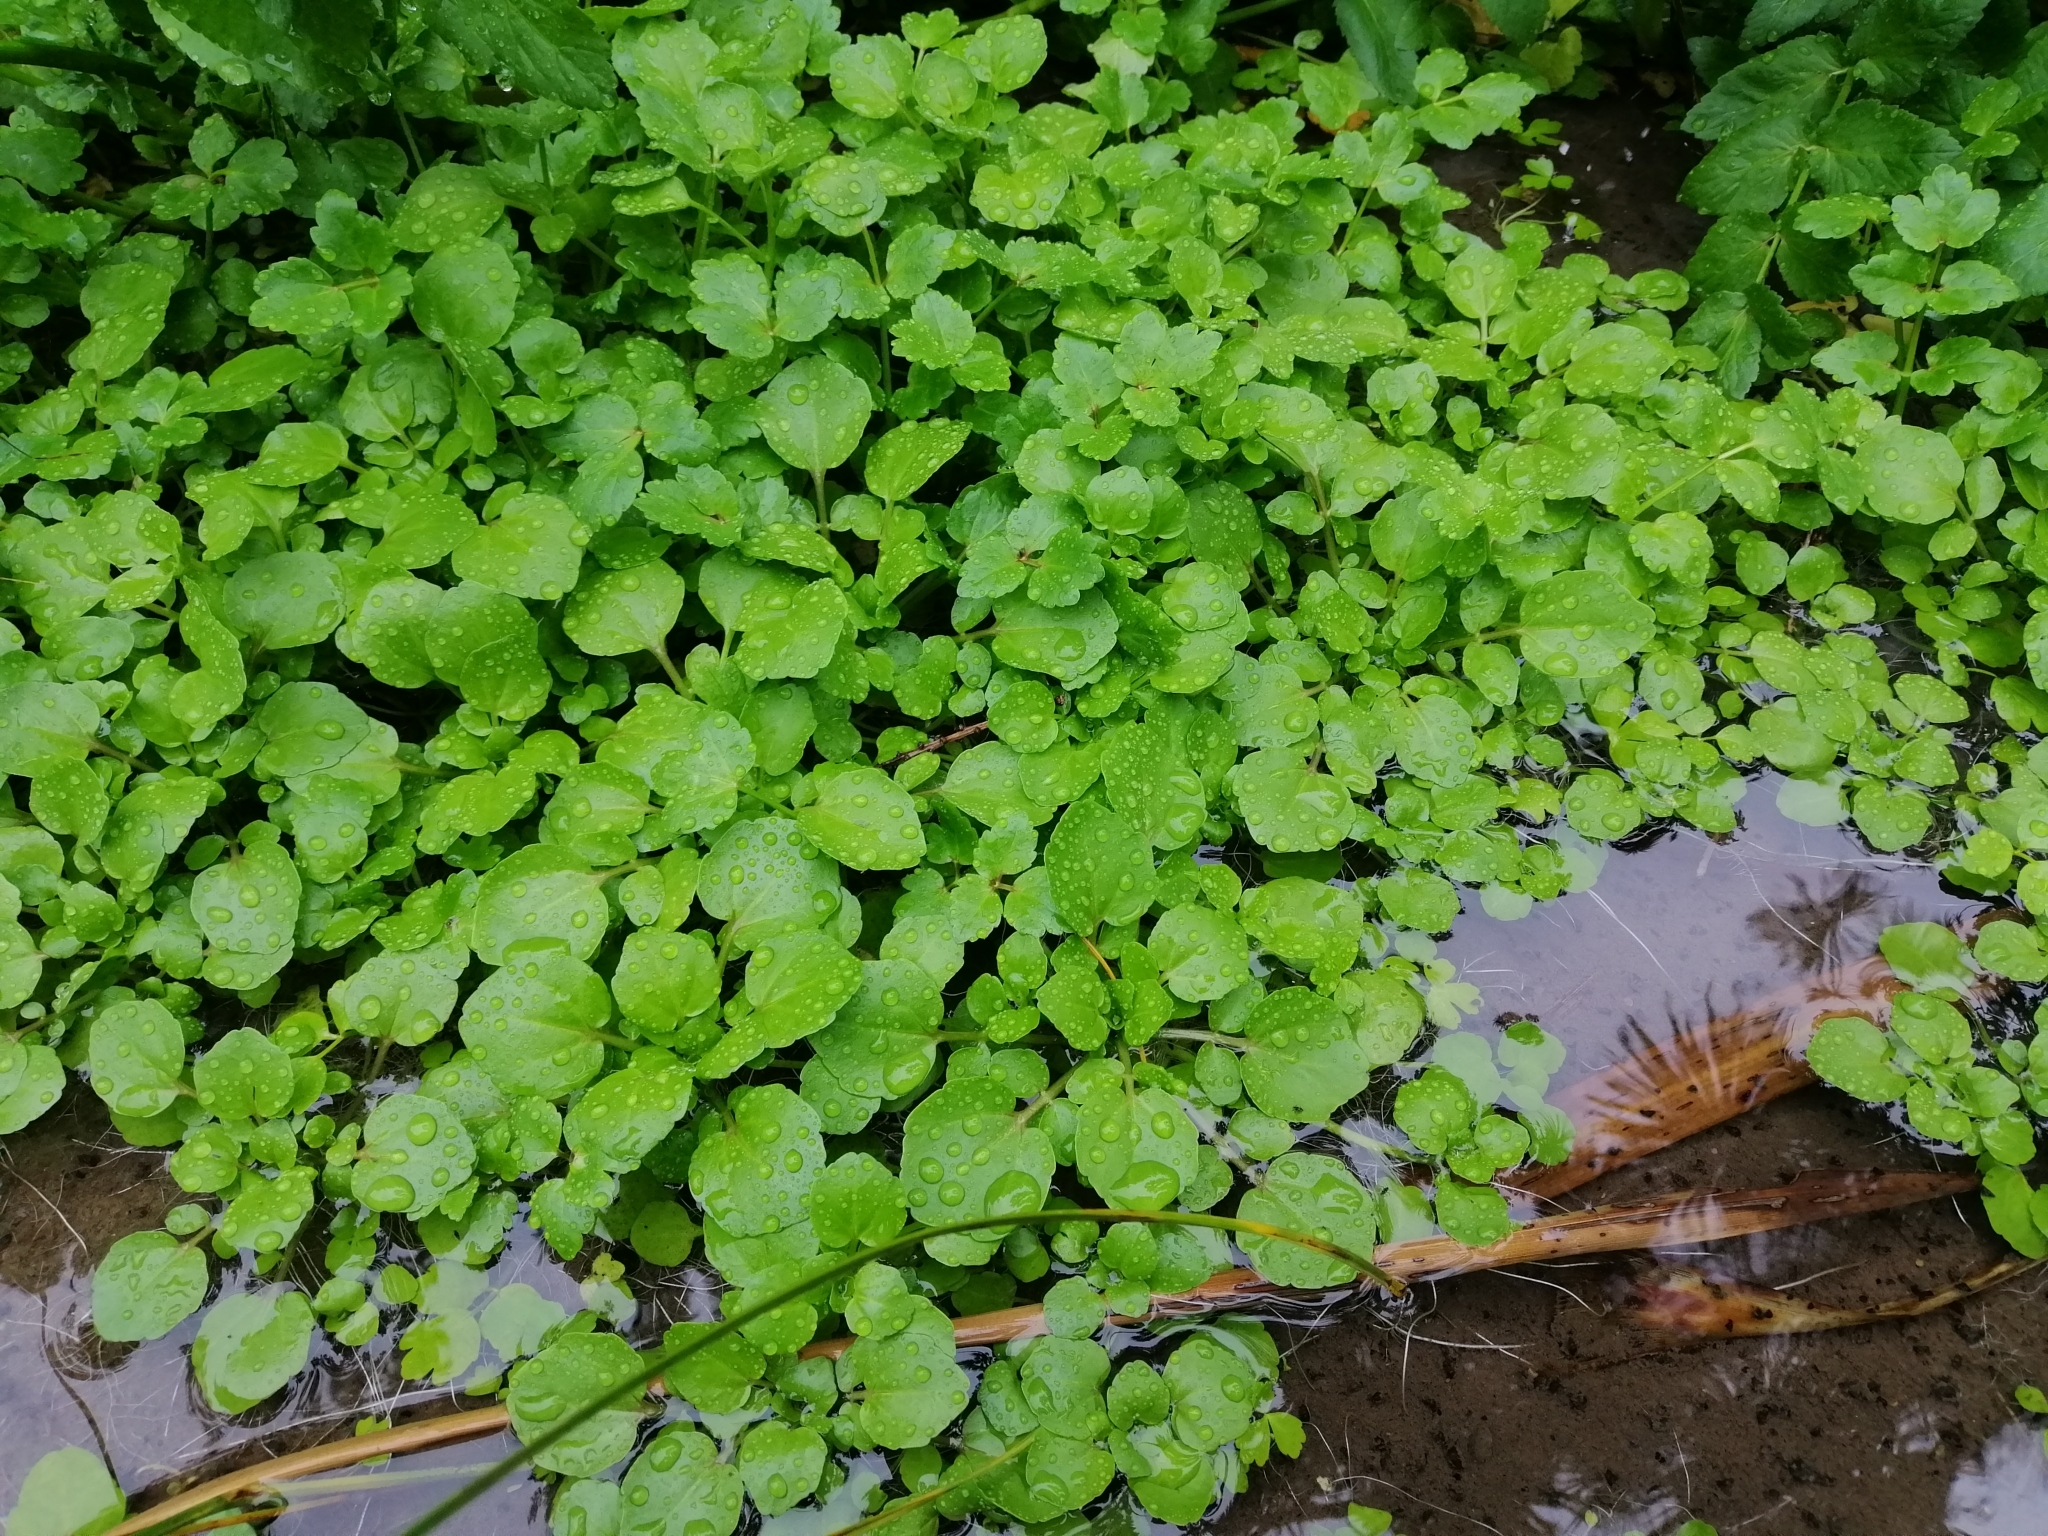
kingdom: Plantae
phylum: Tracheophyta
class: Magnoliopsida
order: Brassicales
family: Brassicaceae
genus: Nasturtium
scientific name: Nasturtium officinale
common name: Watercress
